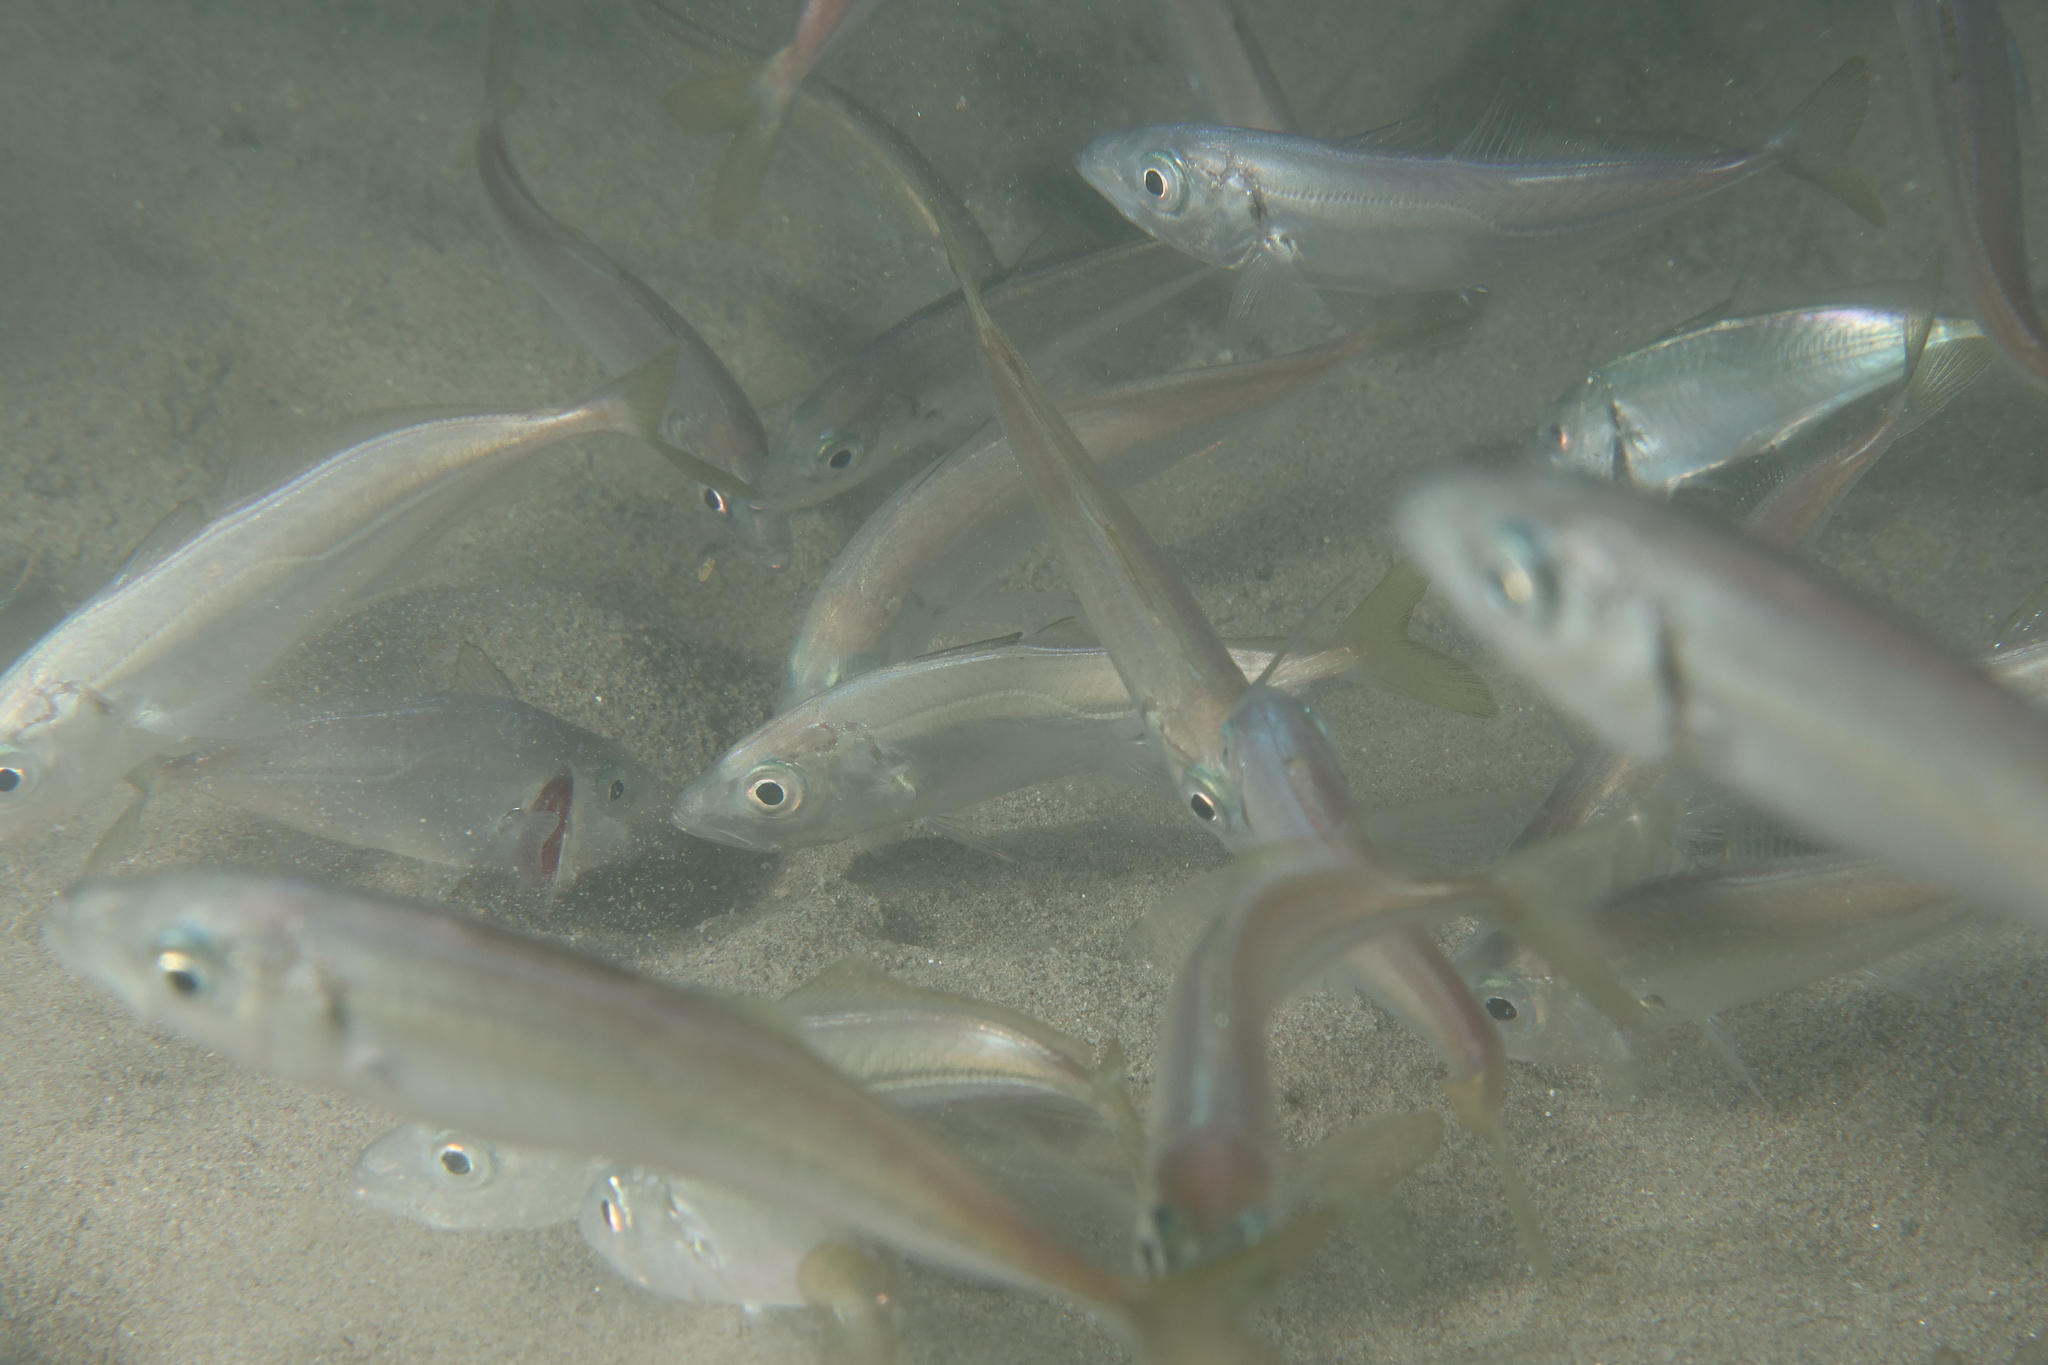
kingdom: Animalia
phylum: Chordata
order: Perciformes
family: Carangidae
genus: Trachurus
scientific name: Trachurus trachurus
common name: Horse mackerel
